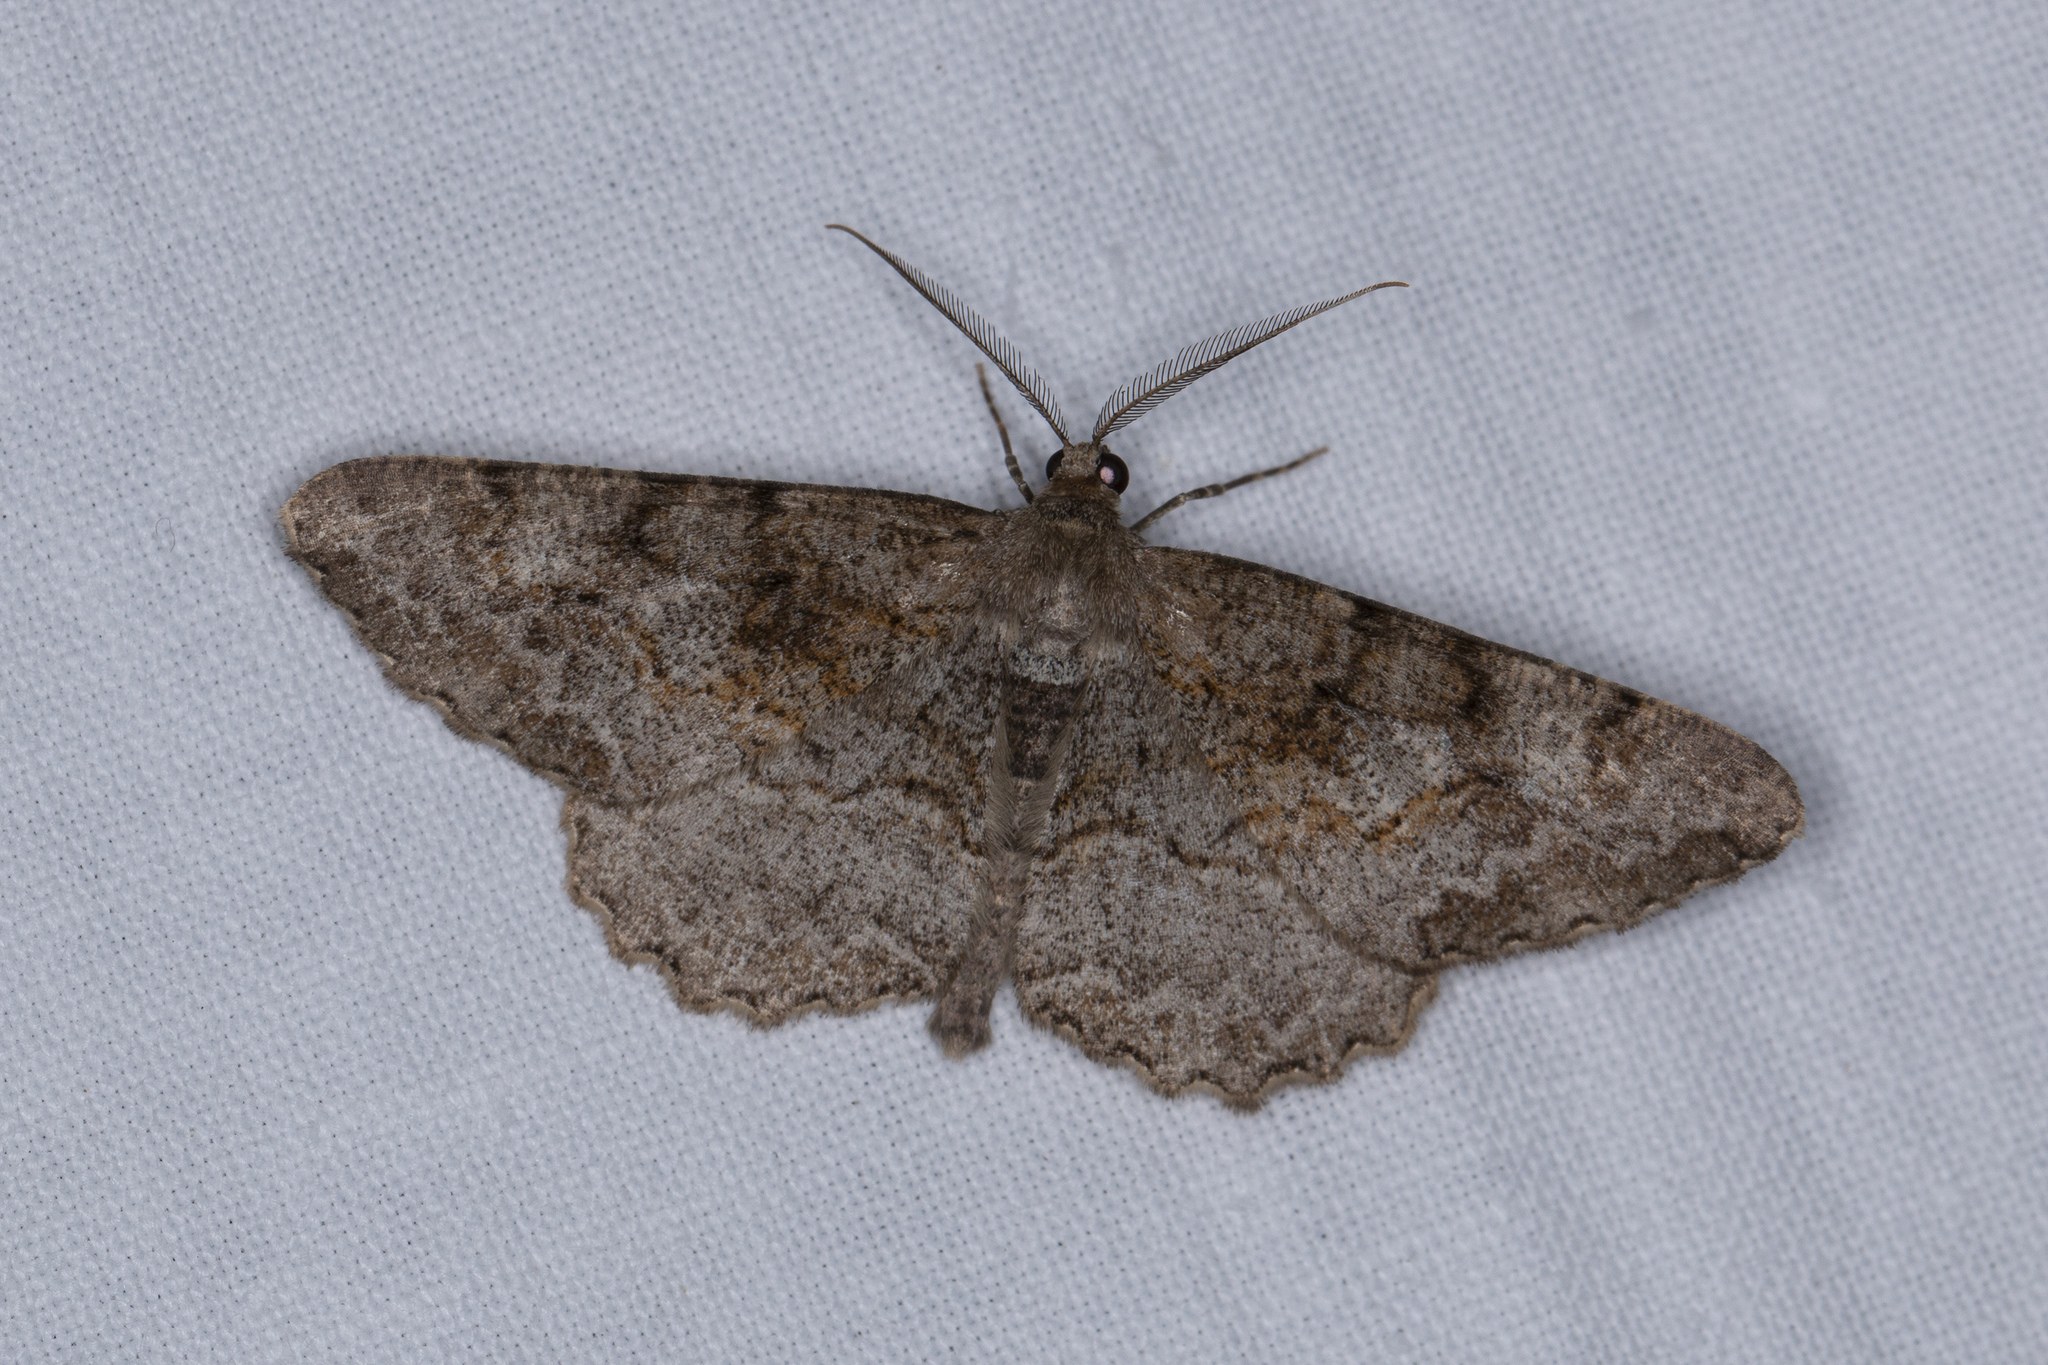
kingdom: Animalia
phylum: Arthropoda
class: Insecta
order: Lepidoptera
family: Geometridae
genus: Alcis
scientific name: Alcis repandata
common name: Mottled beauty
